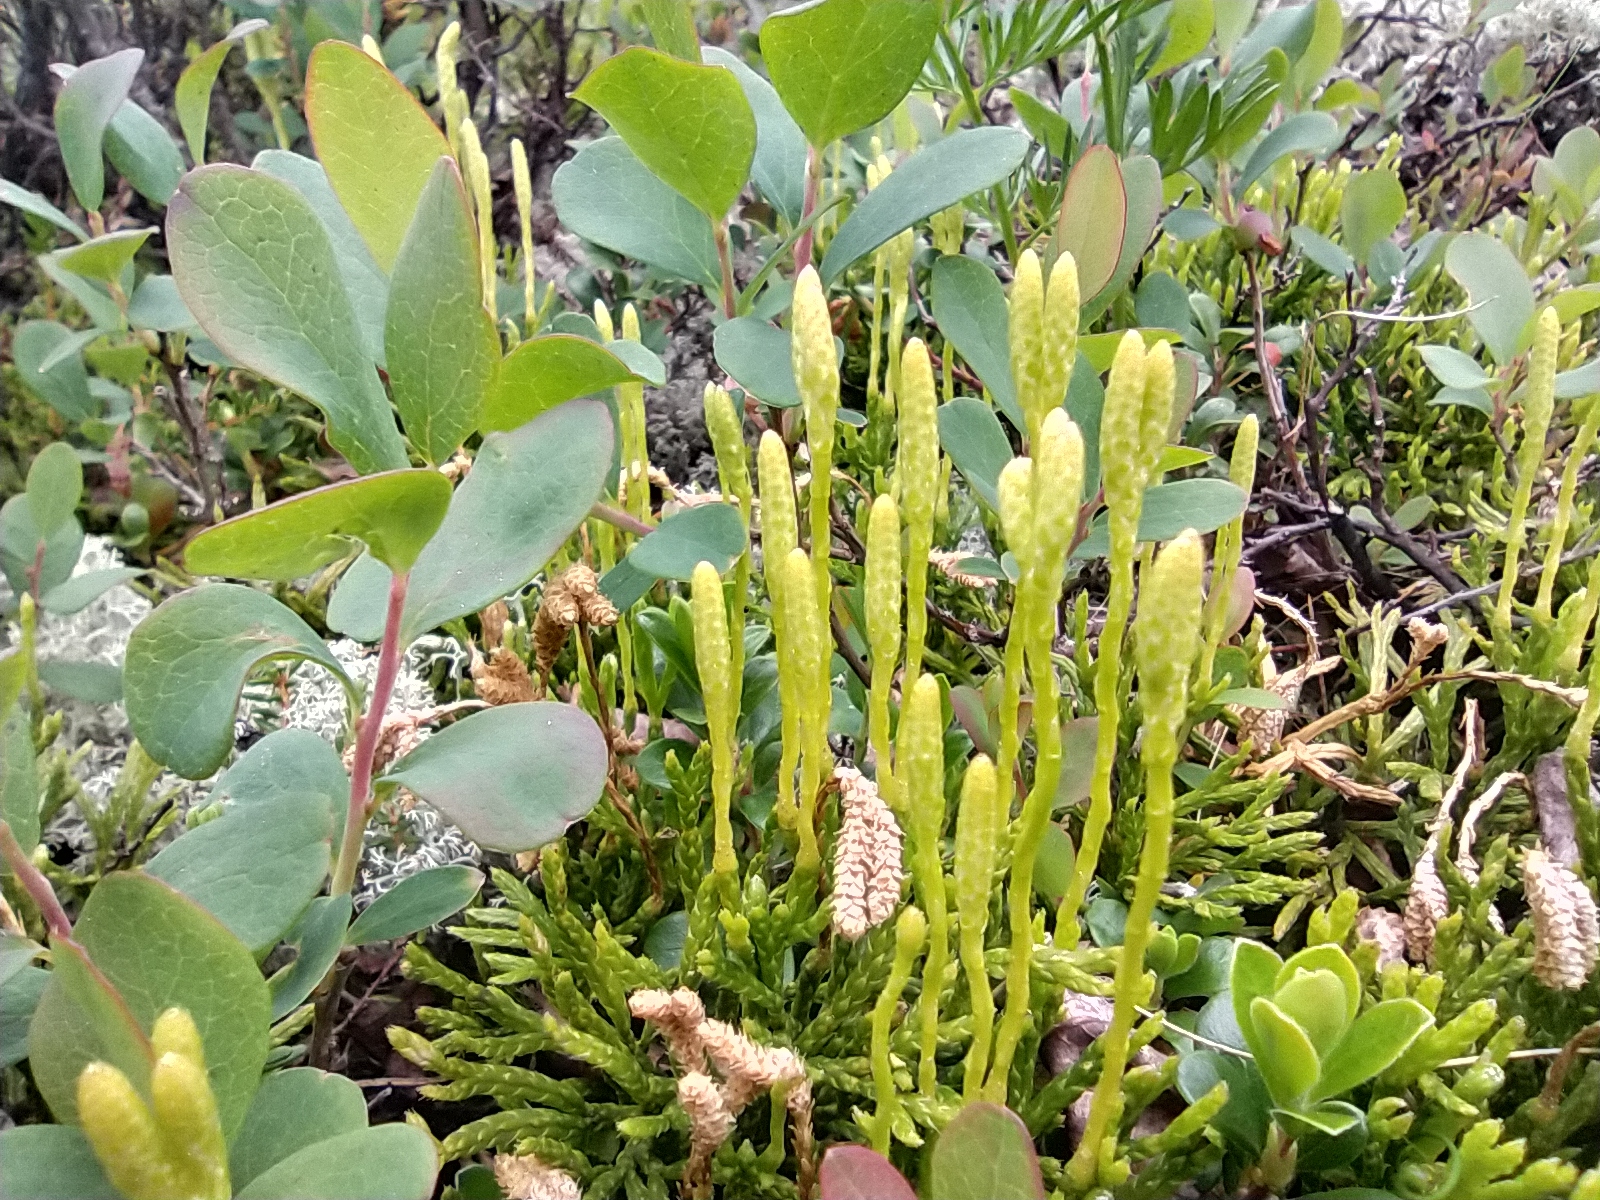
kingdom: Plantae
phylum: Tracheophyta
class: Lycopodiopsida
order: Lycopodiales
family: Lycopodiaceae
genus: Diphasiastrum
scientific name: Diphasiastrum issleri
